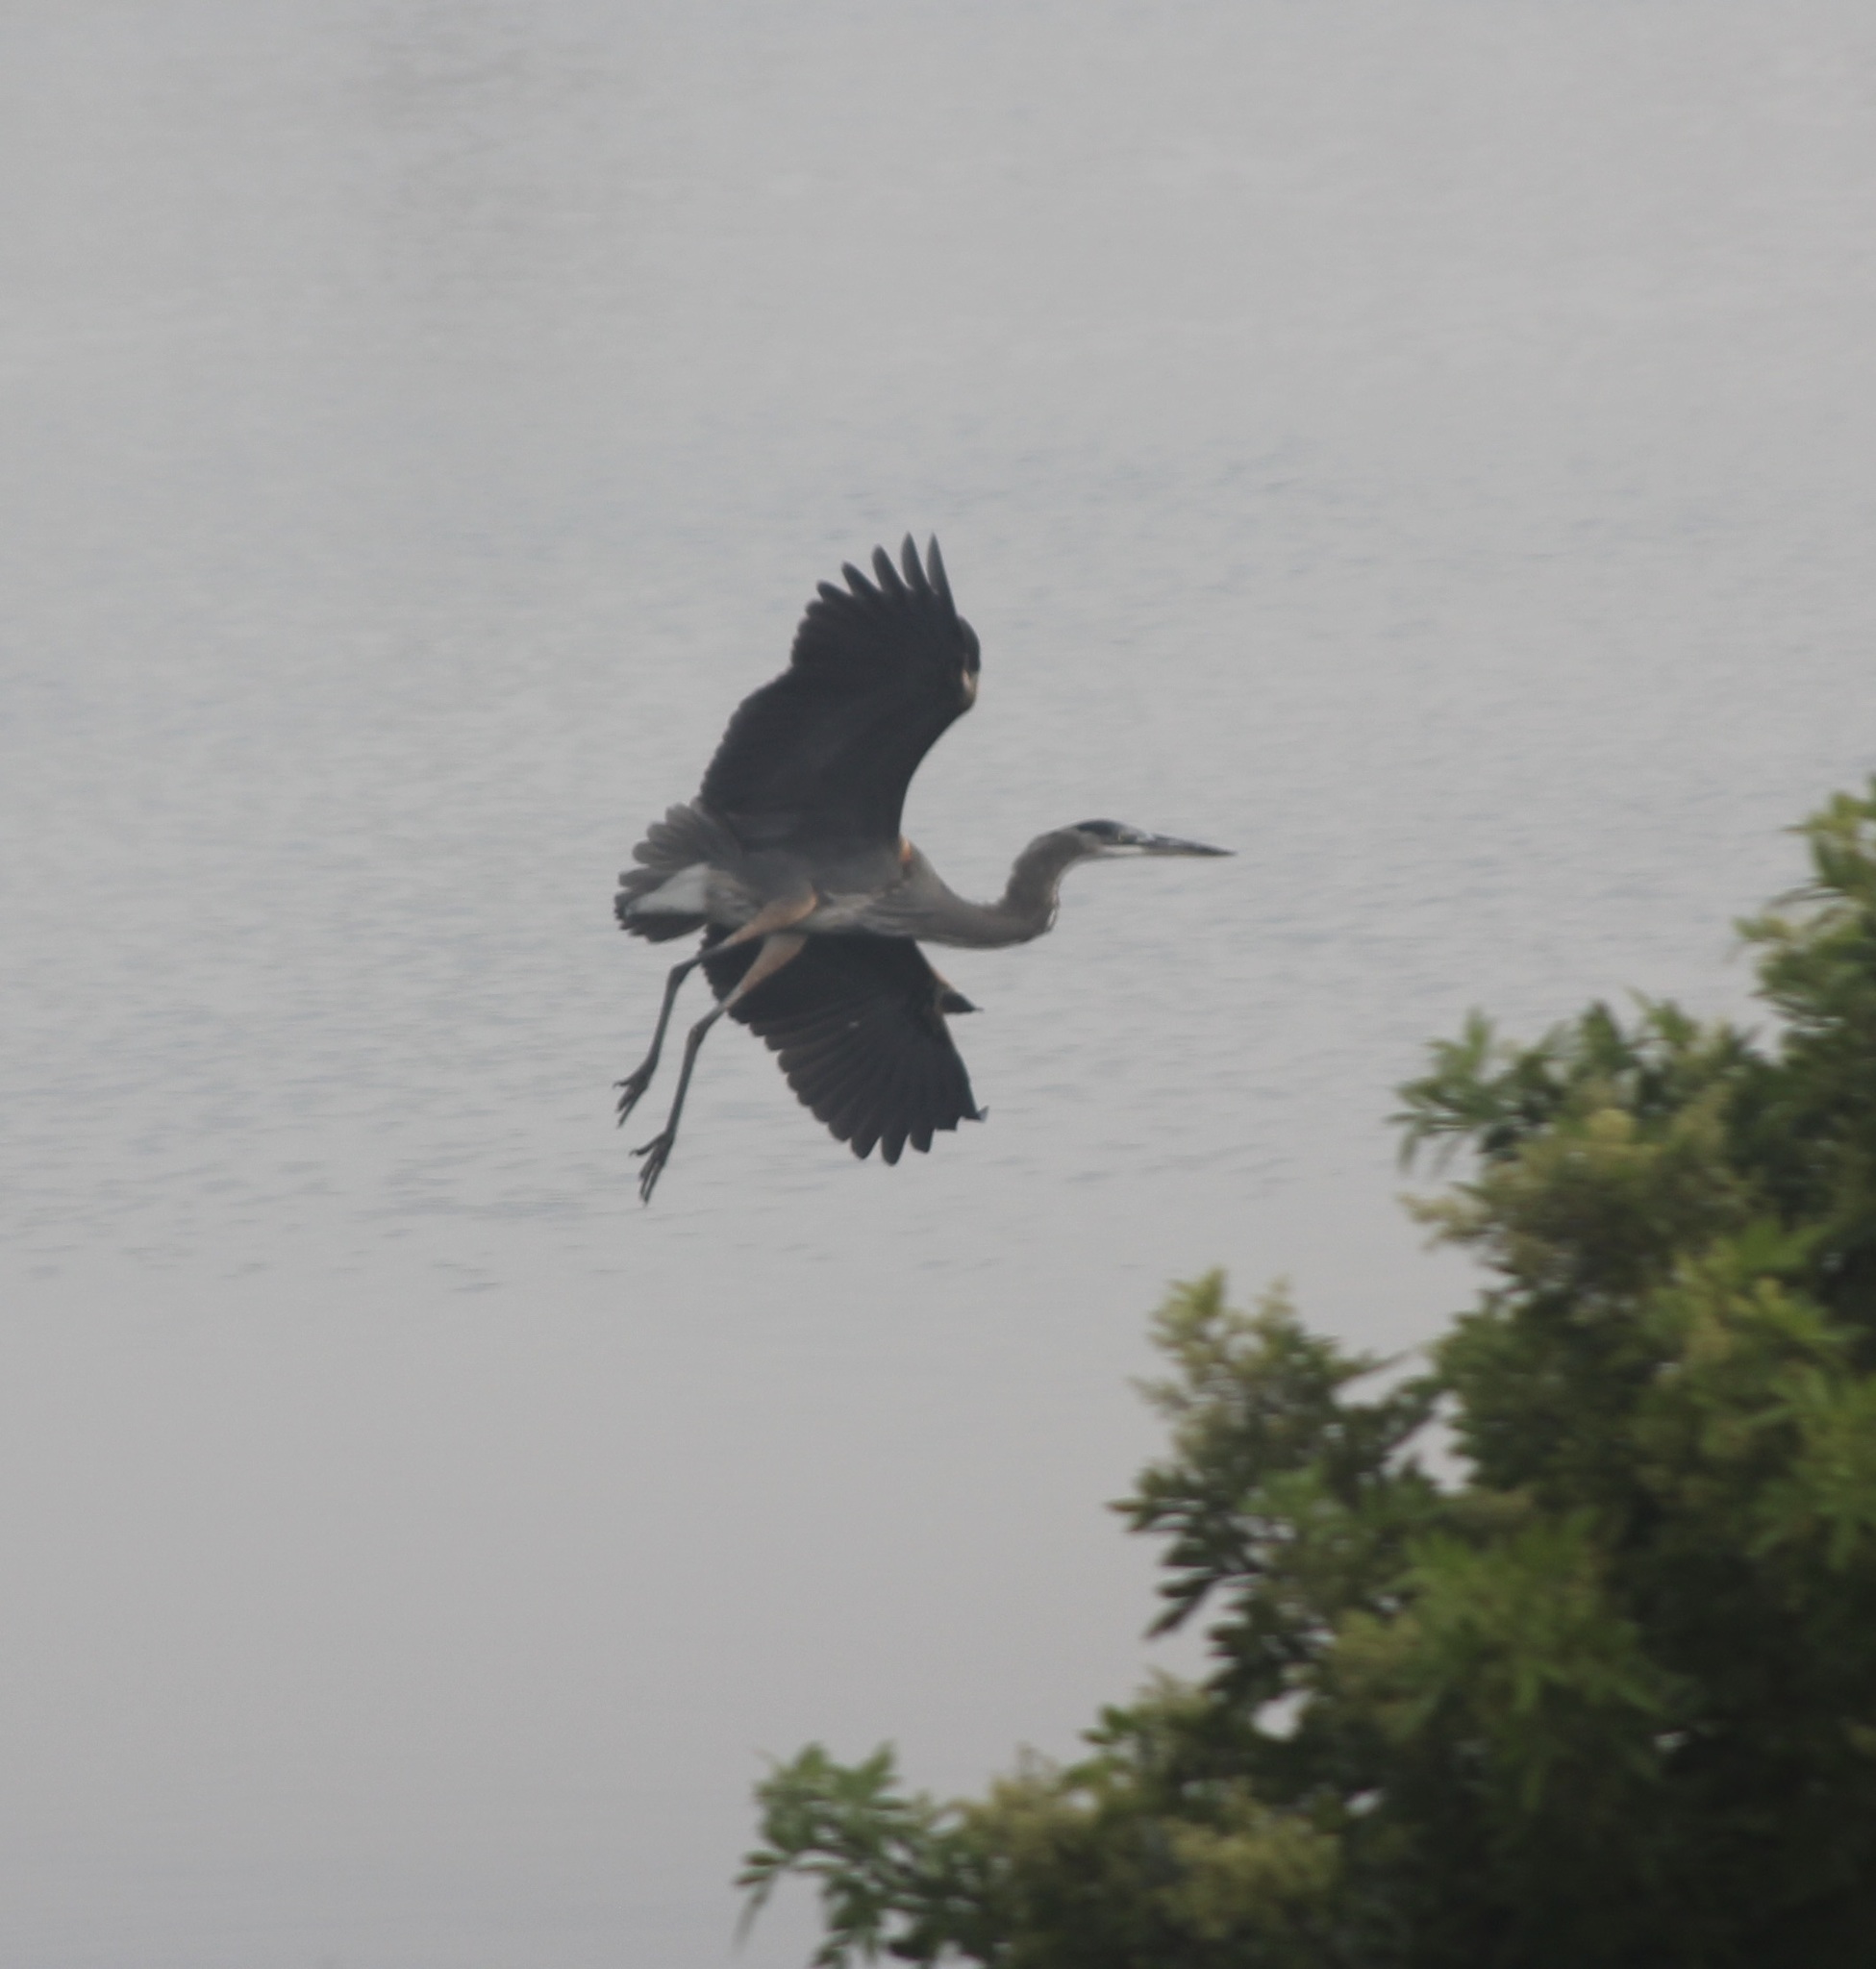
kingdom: Animalia
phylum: Chordata
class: Aves
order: Pelecaniformes
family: Ardeidae
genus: Ardea
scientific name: Ardea herodias
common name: Great blue heron
